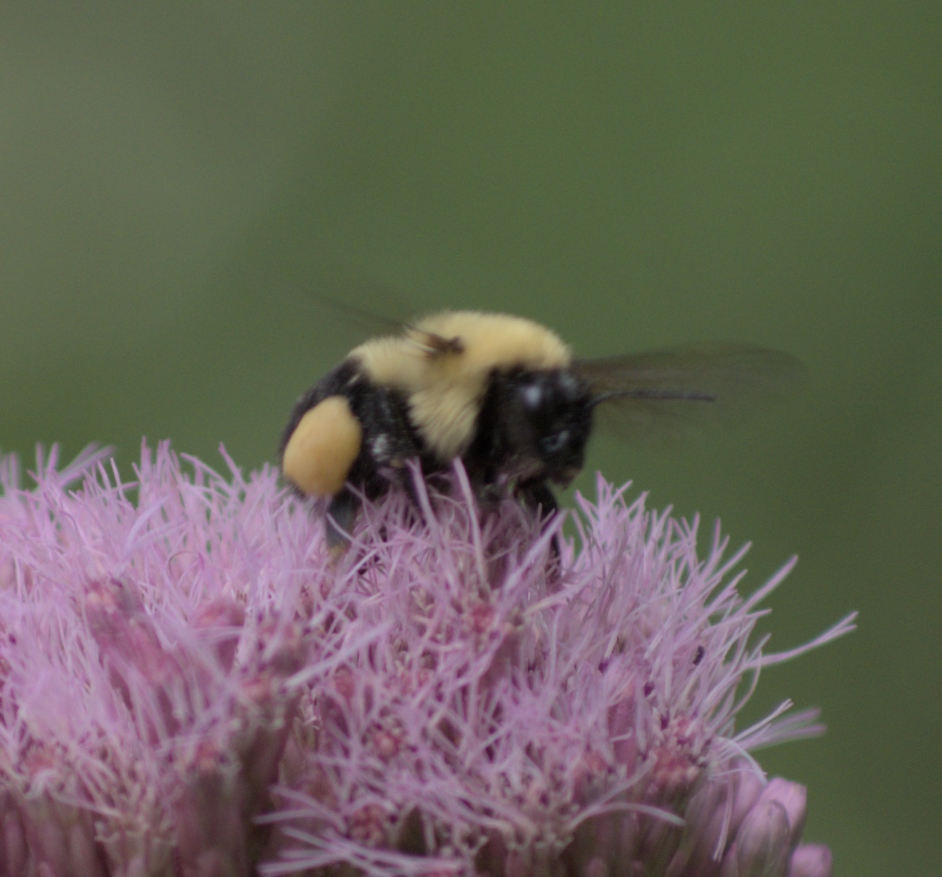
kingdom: Animalia
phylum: Arthropoda
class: Insecta
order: Hymenoptera
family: Apidae
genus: Bombus
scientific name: Bombus bimaculatus
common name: Two-spotted bumble bee
